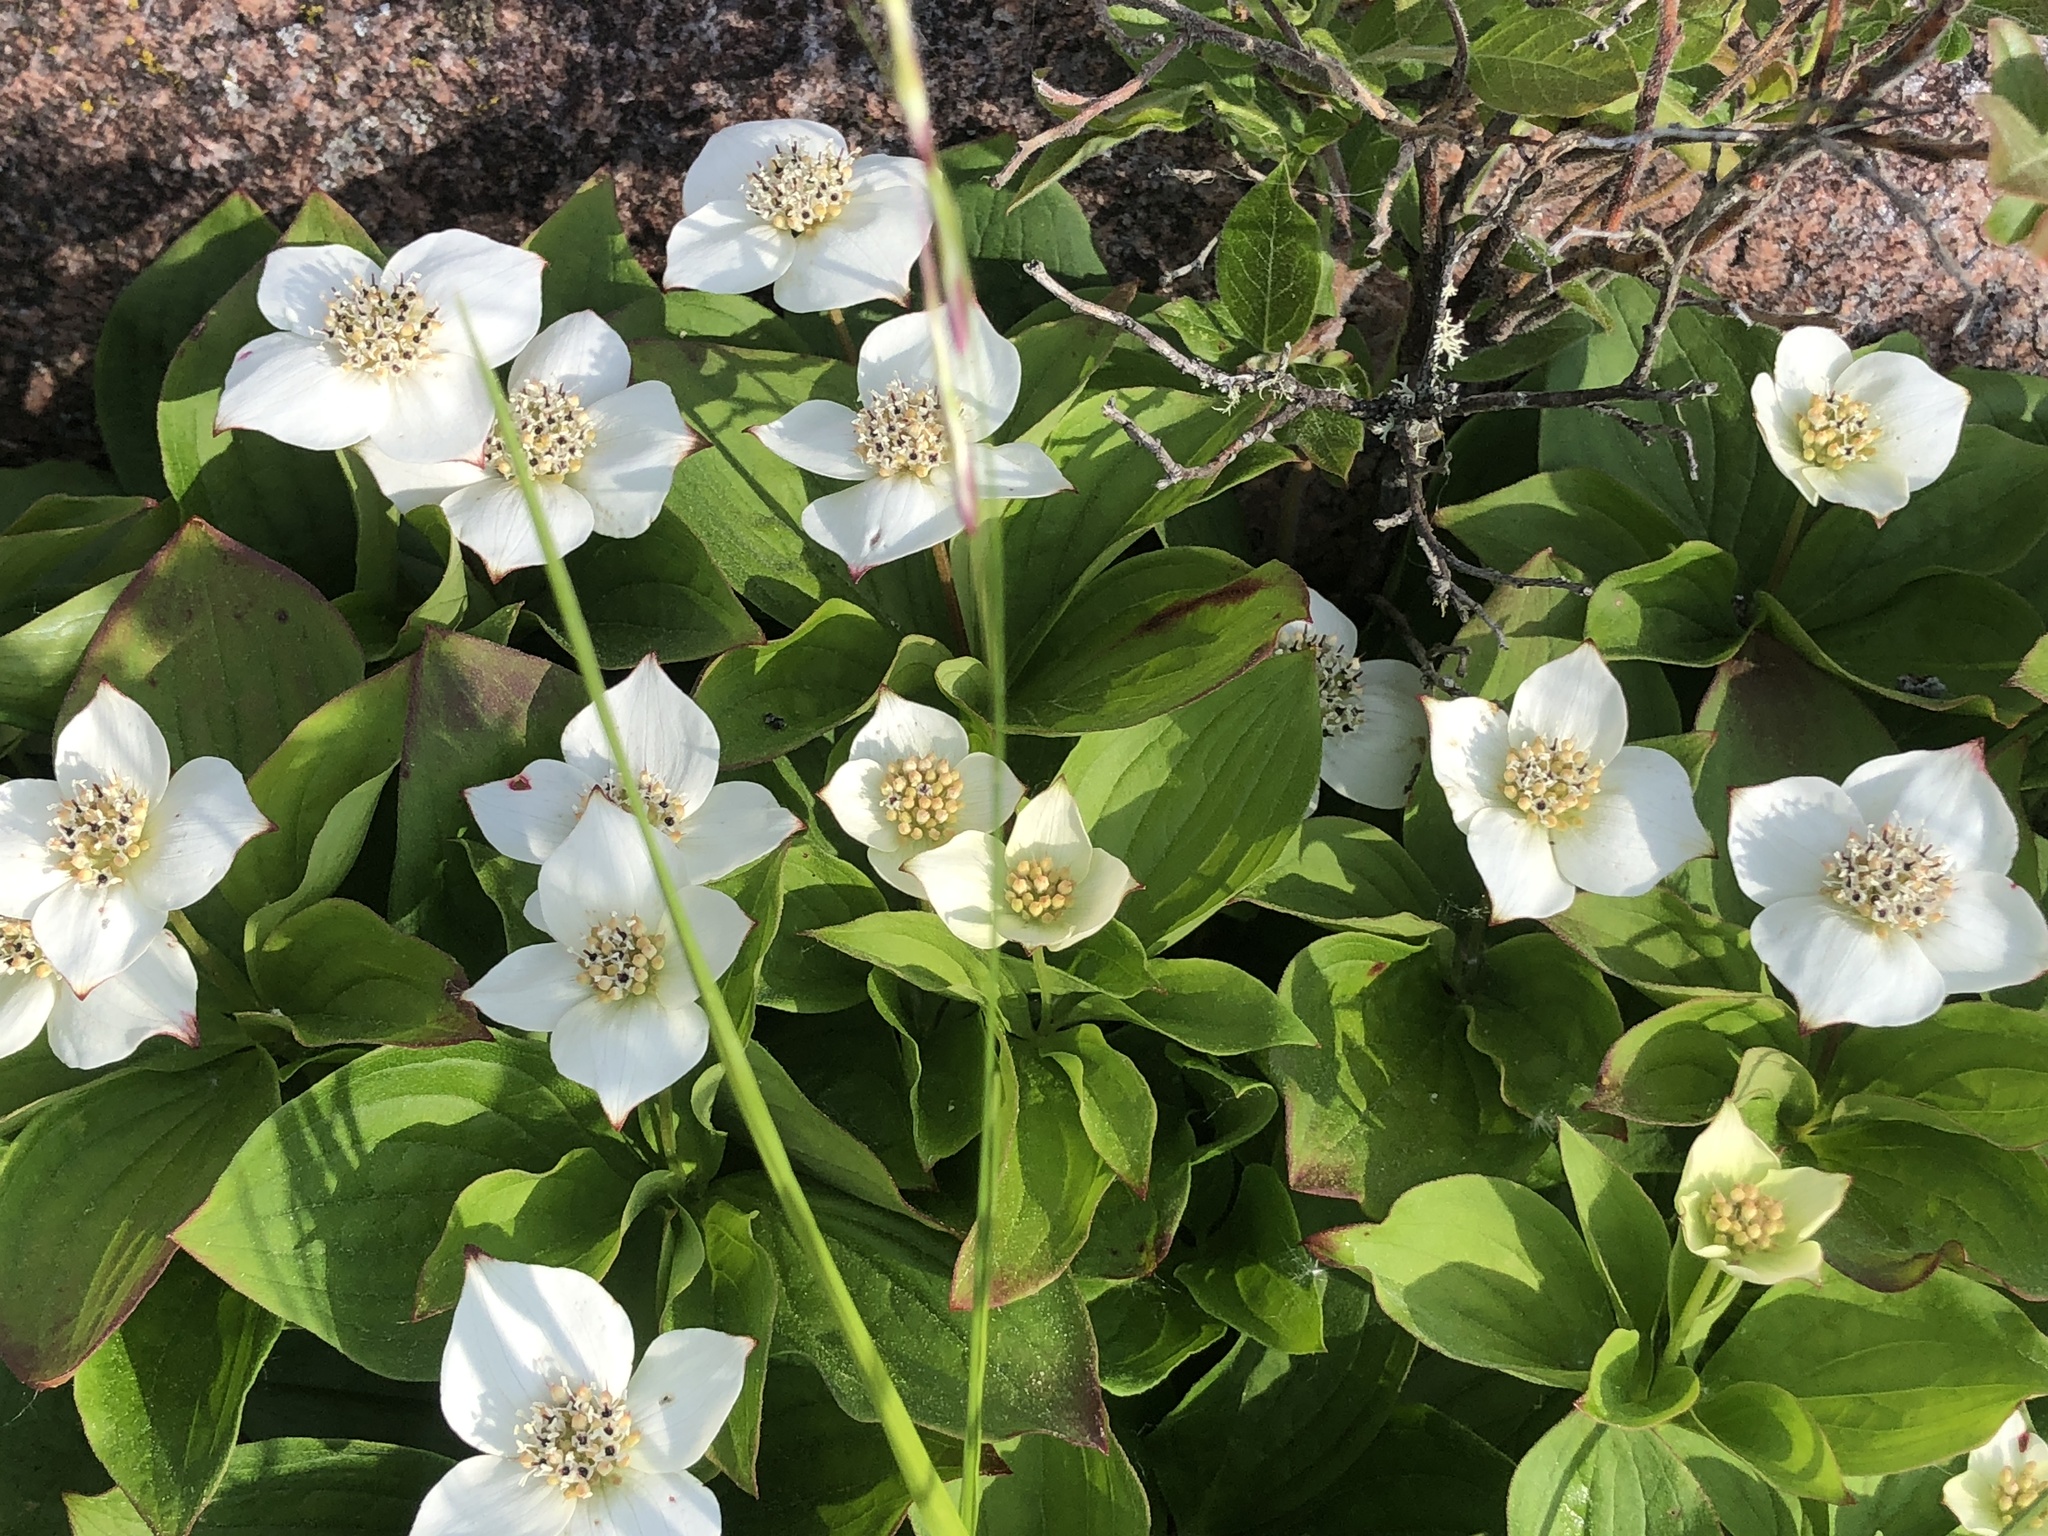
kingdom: Plantae
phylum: Tracheophyta
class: Magnoliopsida
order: Cornales
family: Cornaceae
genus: Cornus
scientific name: Cornus canadensis
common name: Creeping dogwood
